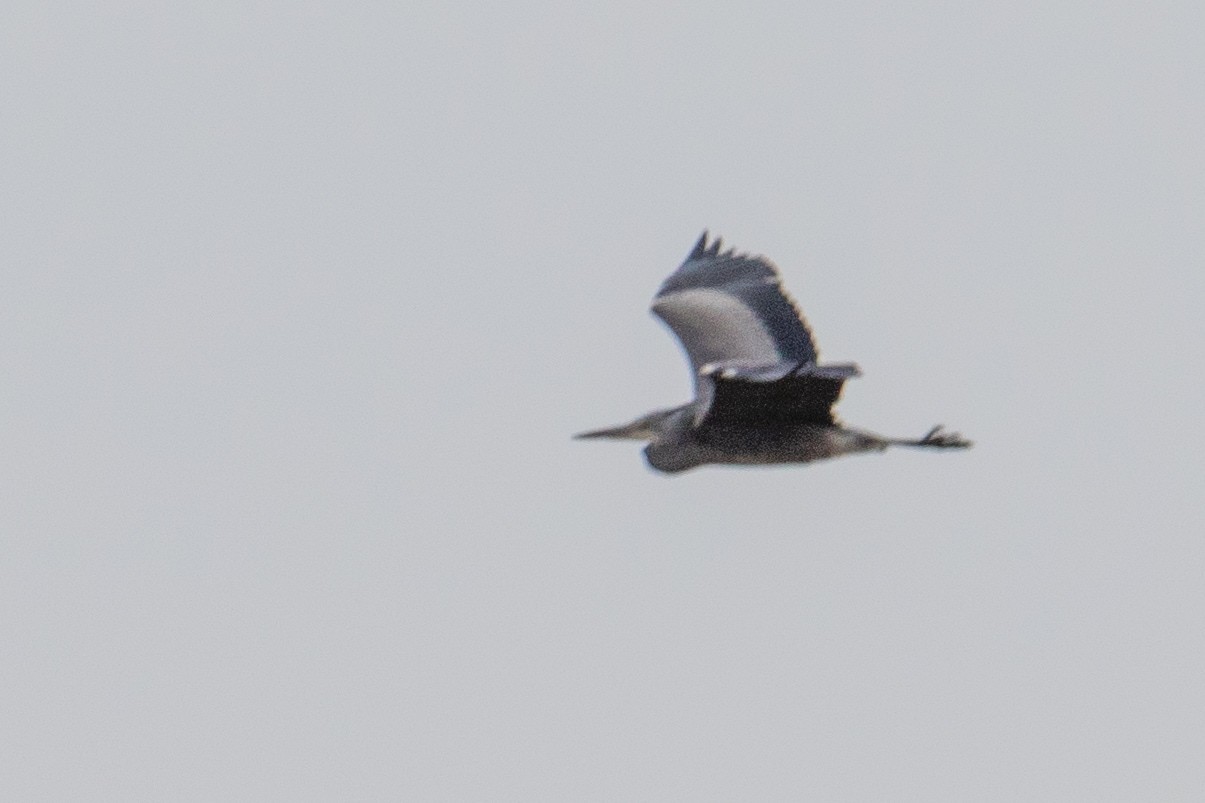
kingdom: Animalia
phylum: Chordata
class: Aves
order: Pelecaniformes
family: Ardeidae
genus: Ardea
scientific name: Ardea cinerea
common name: Grey heron
